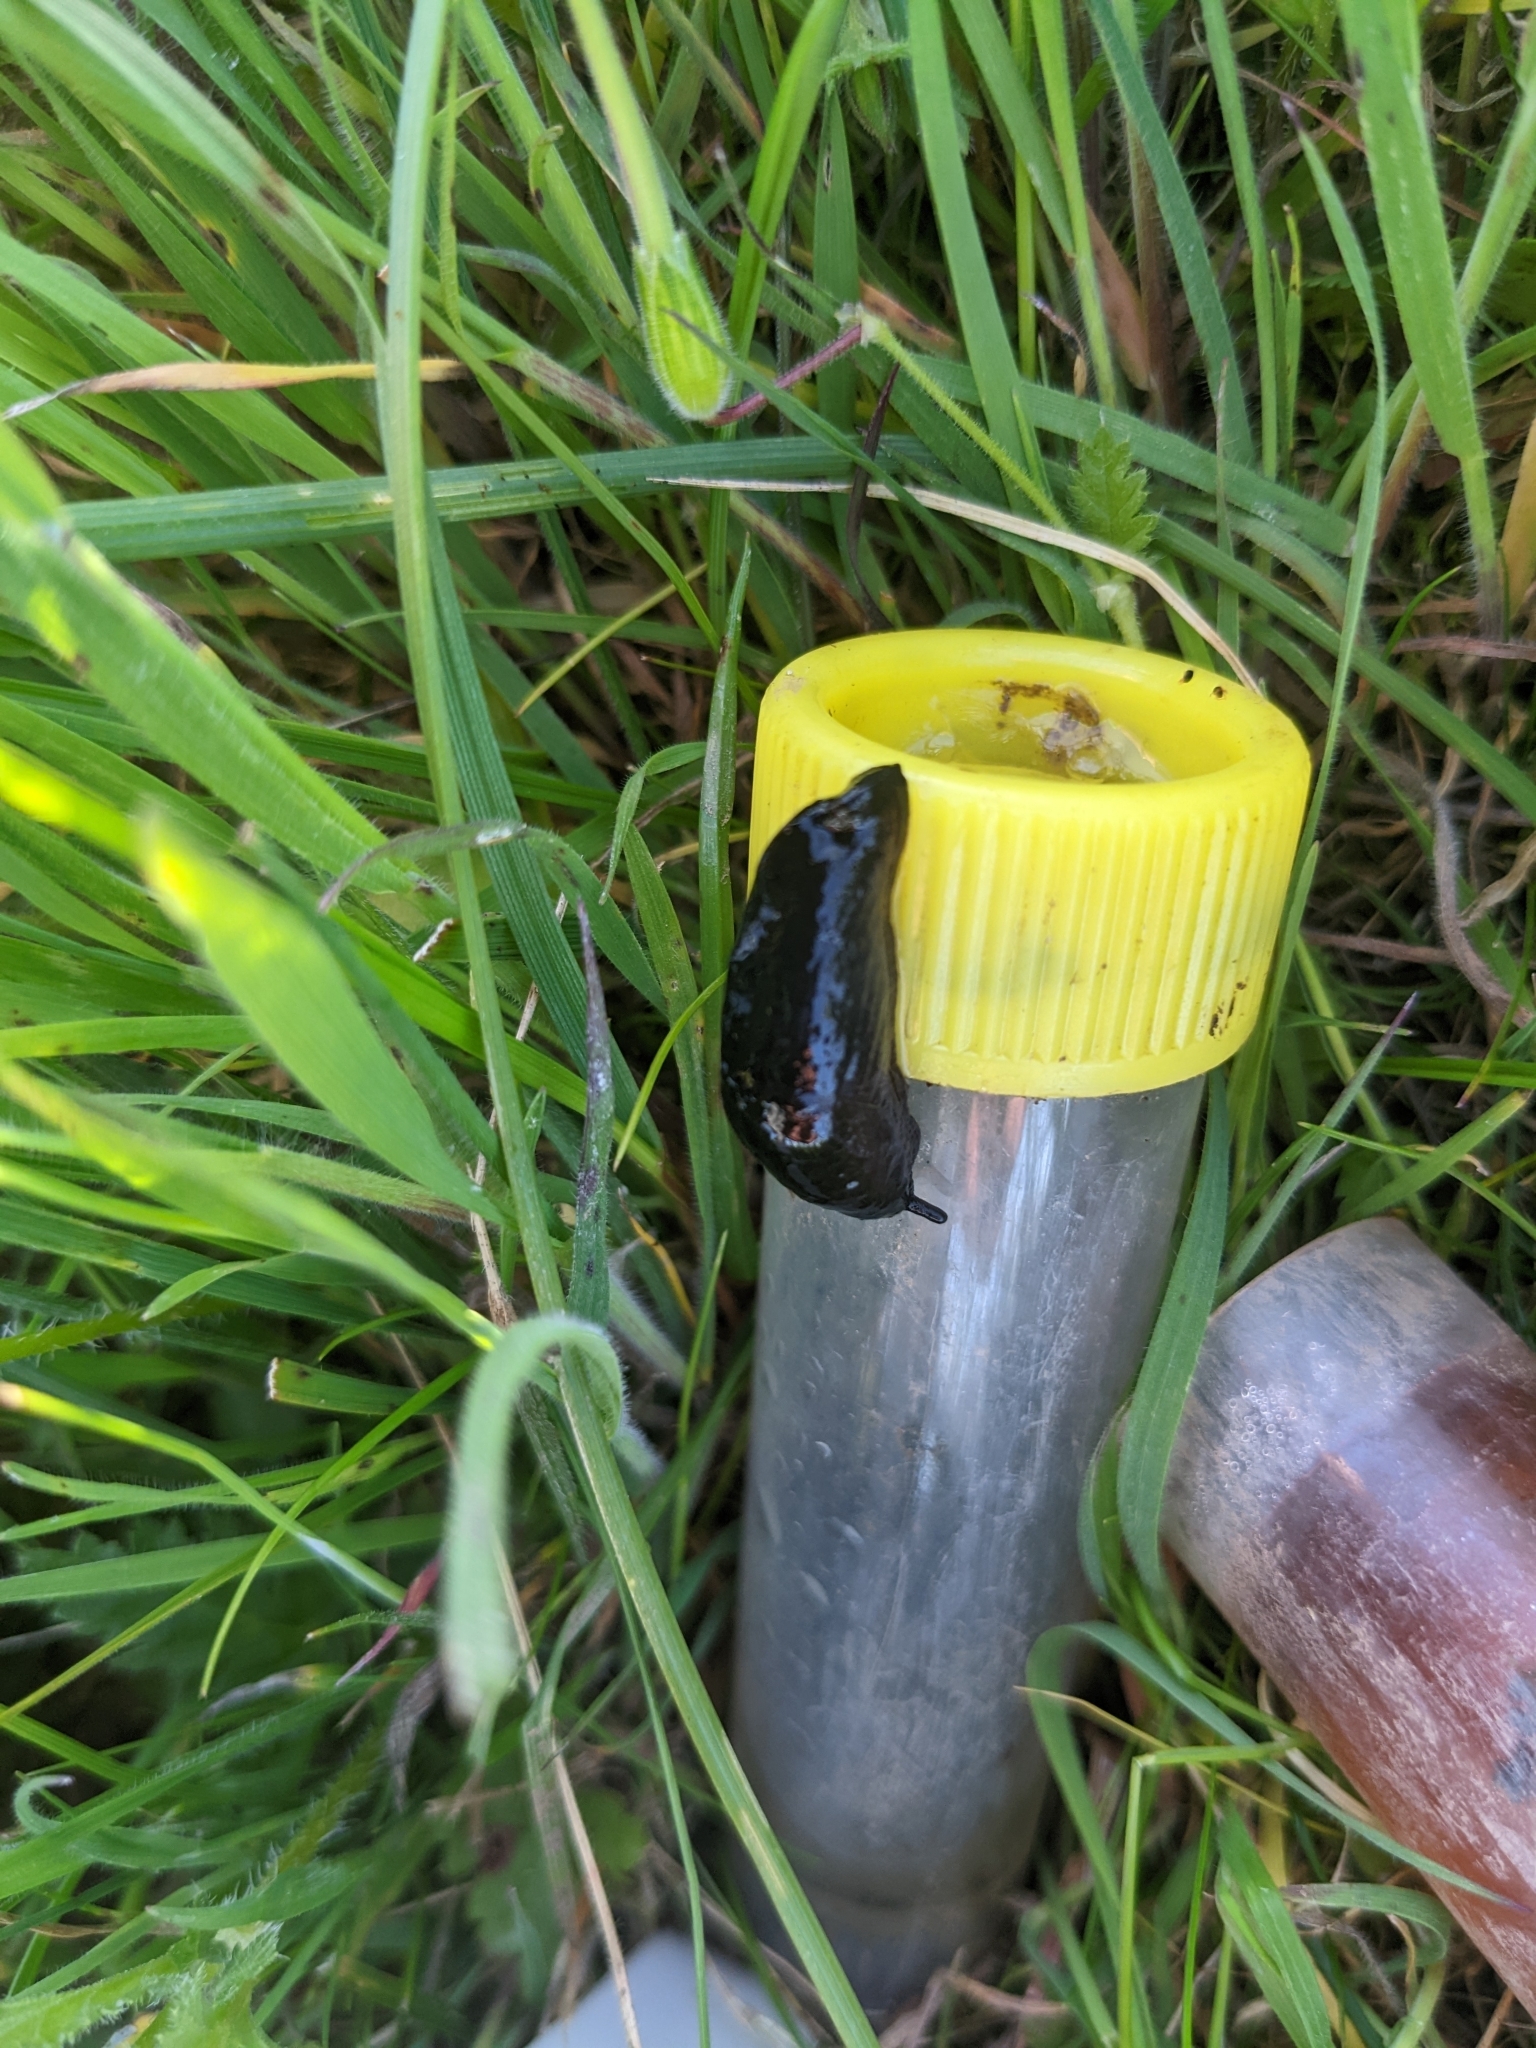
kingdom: Animalia
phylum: Mollusca
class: Gastropoda
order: Stylommatophora
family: Milacidae
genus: Milax
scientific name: Milax gagates
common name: Greenhouse slug
